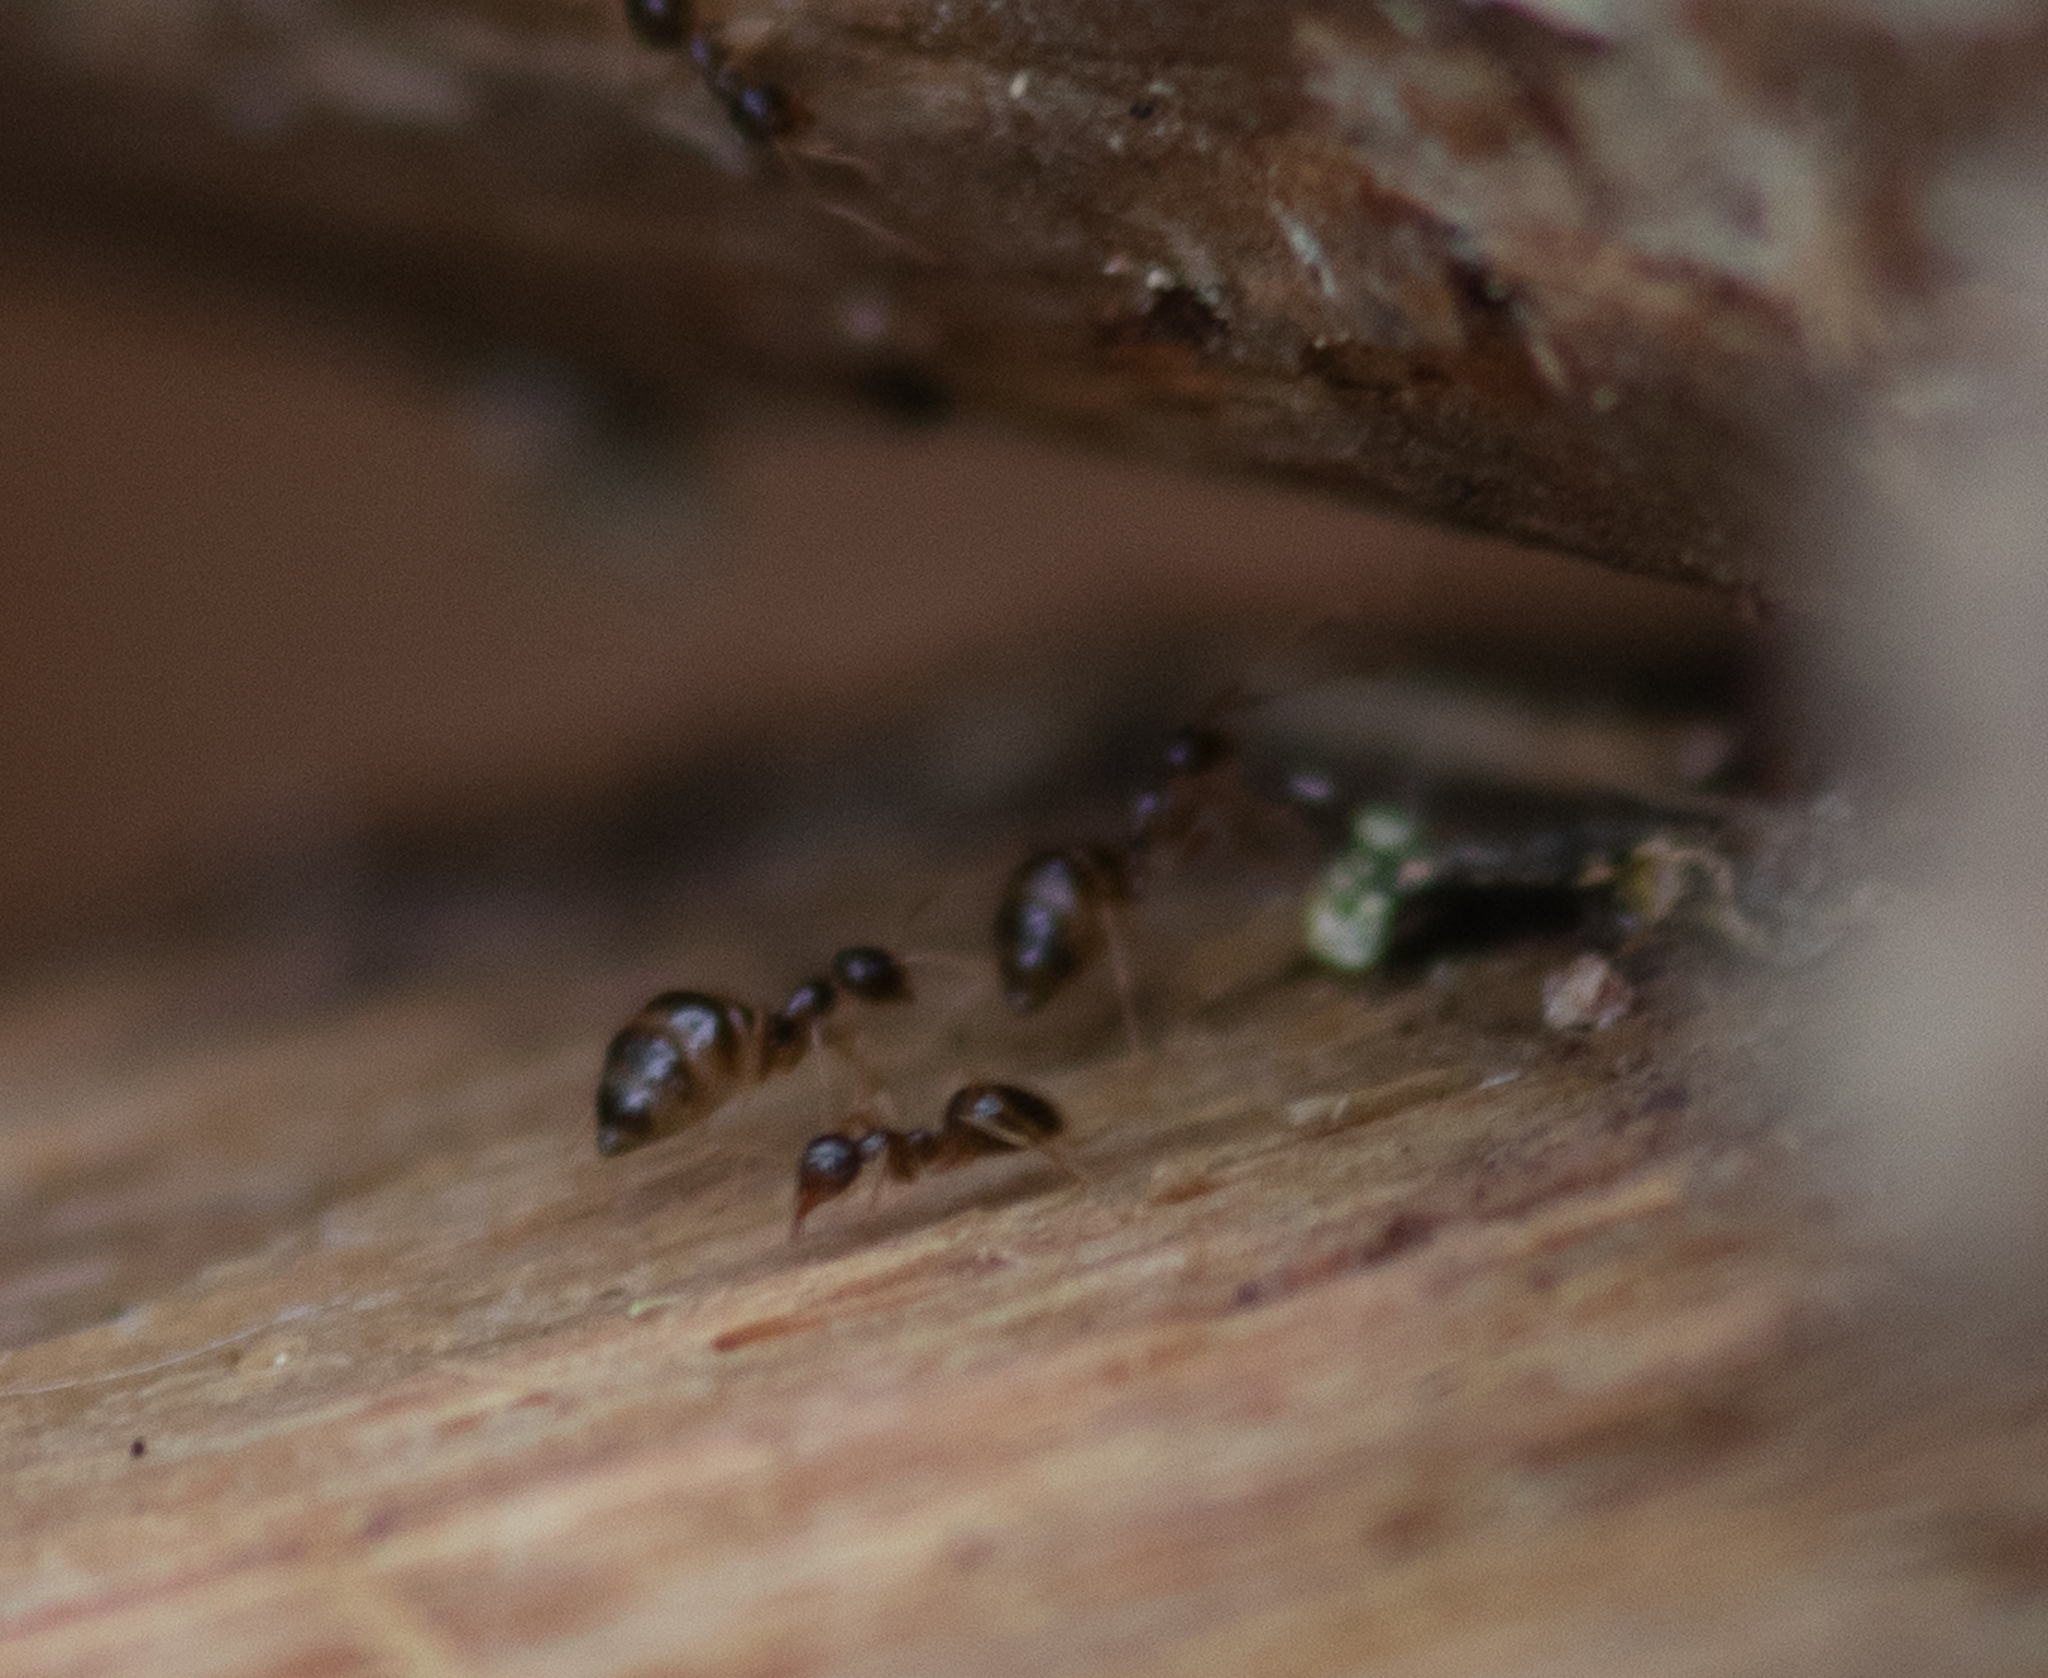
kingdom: Animalia
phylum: Arthropoda
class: Insecta
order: Hymenoptera
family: Formicidae
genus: Prenolepis
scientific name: Prenolepis imparis
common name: Small honey ant
